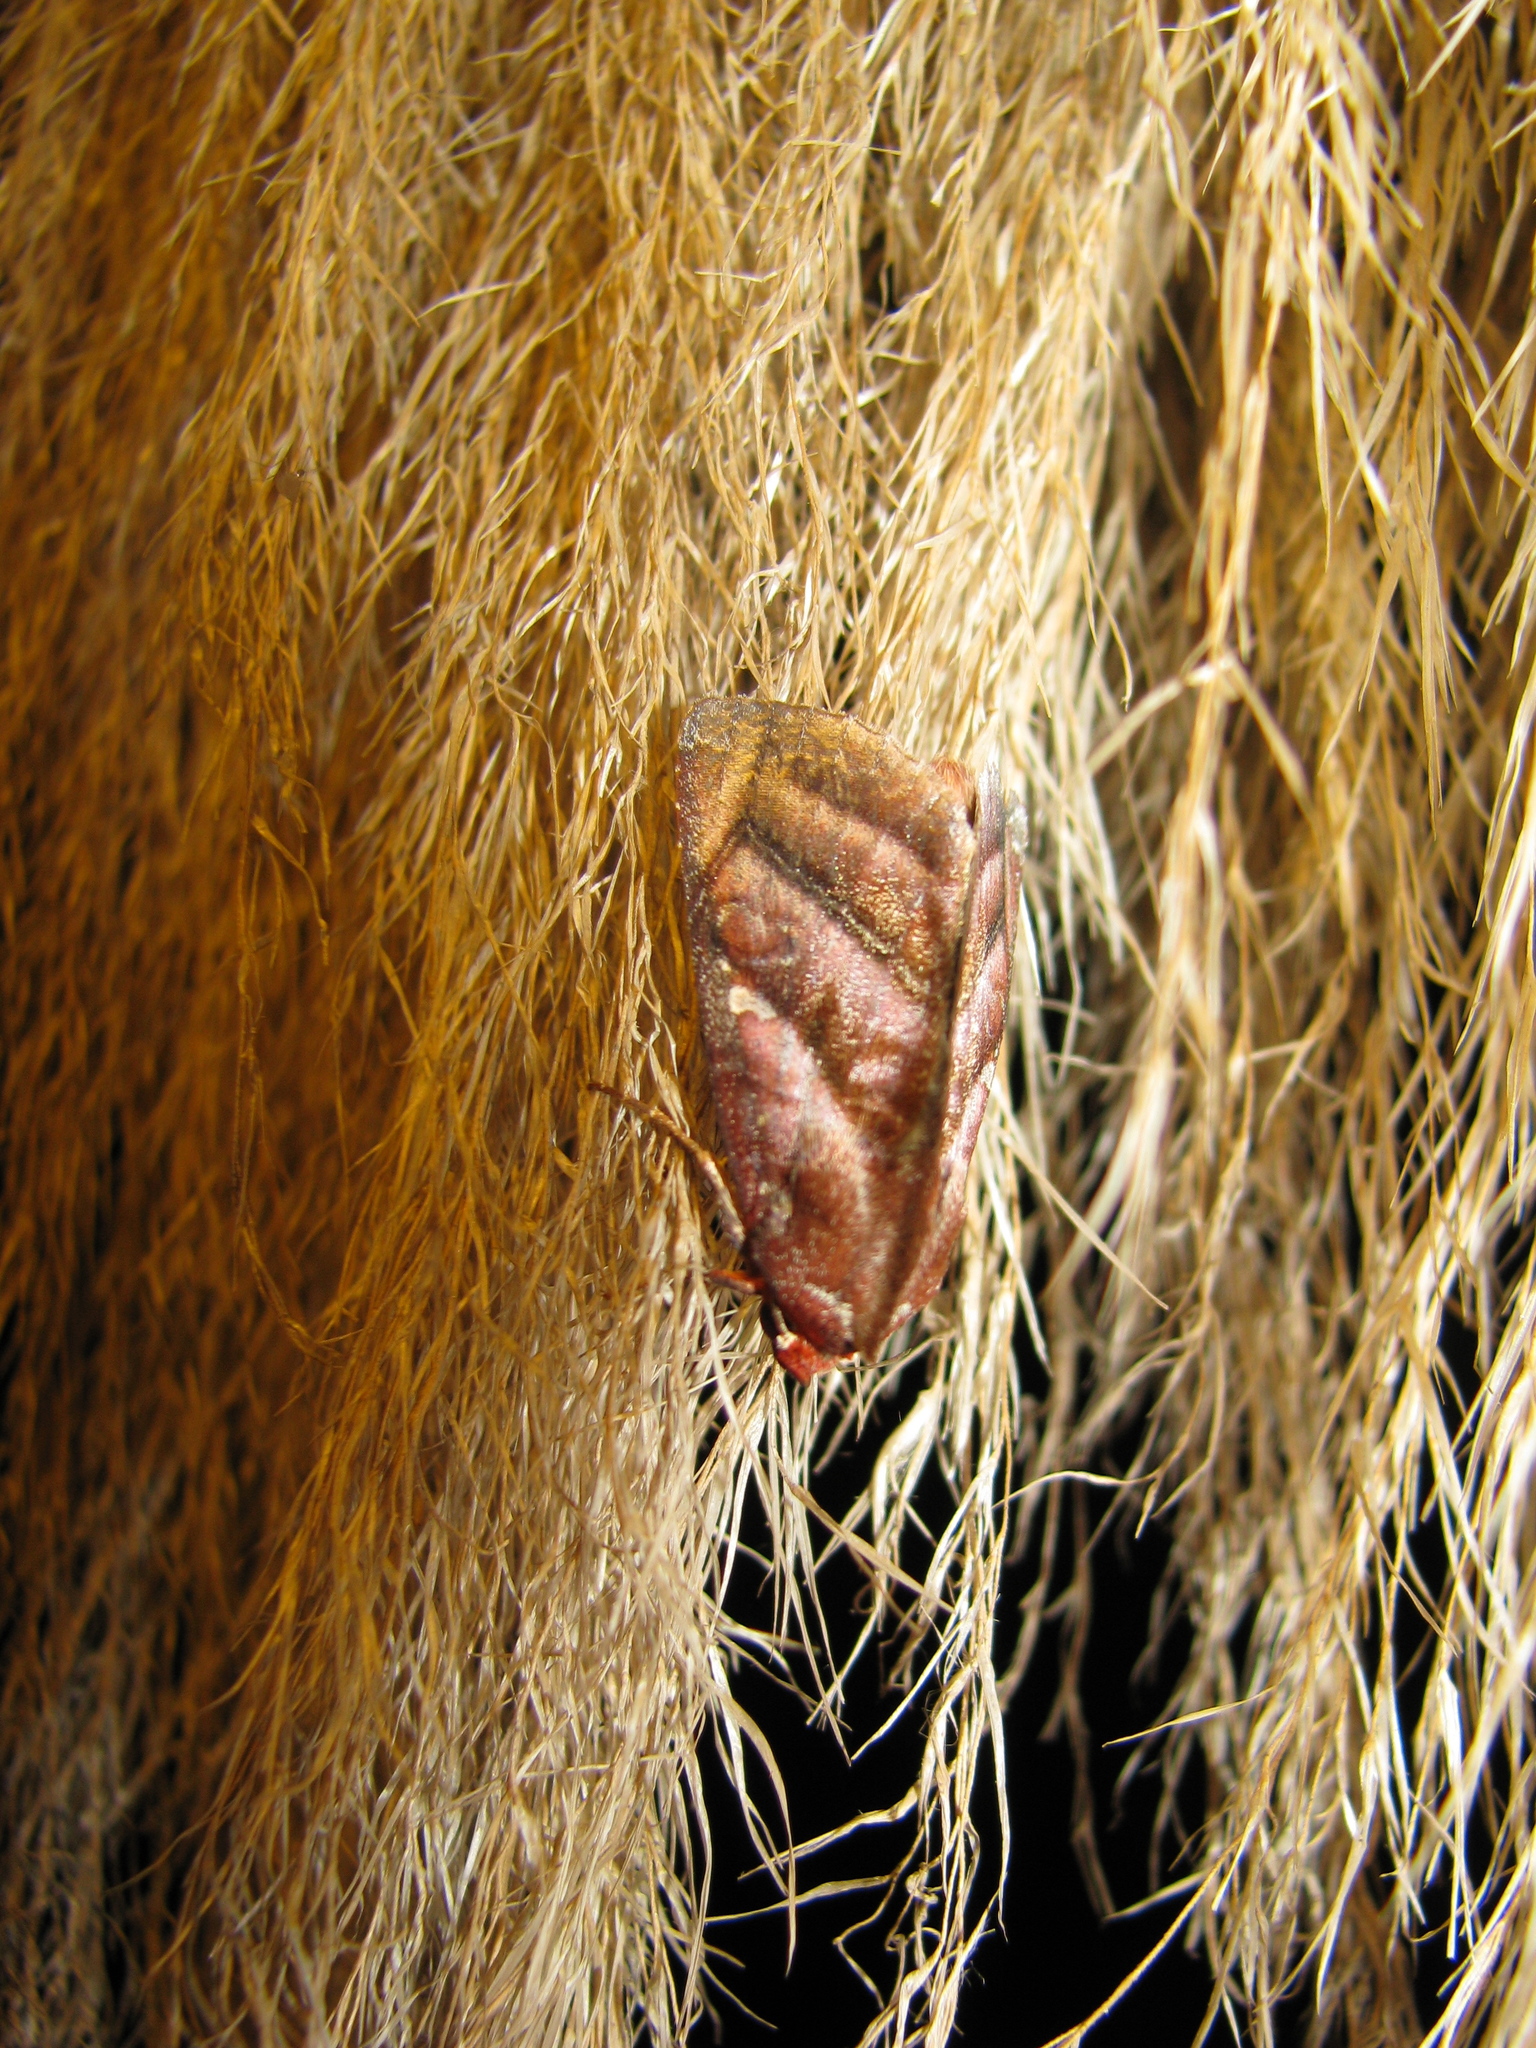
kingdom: Animalia
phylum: Arthropoda
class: Insecta
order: Lepidoptera
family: Erebidae
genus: Hemicephalis
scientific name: Hemicephalis paulina
